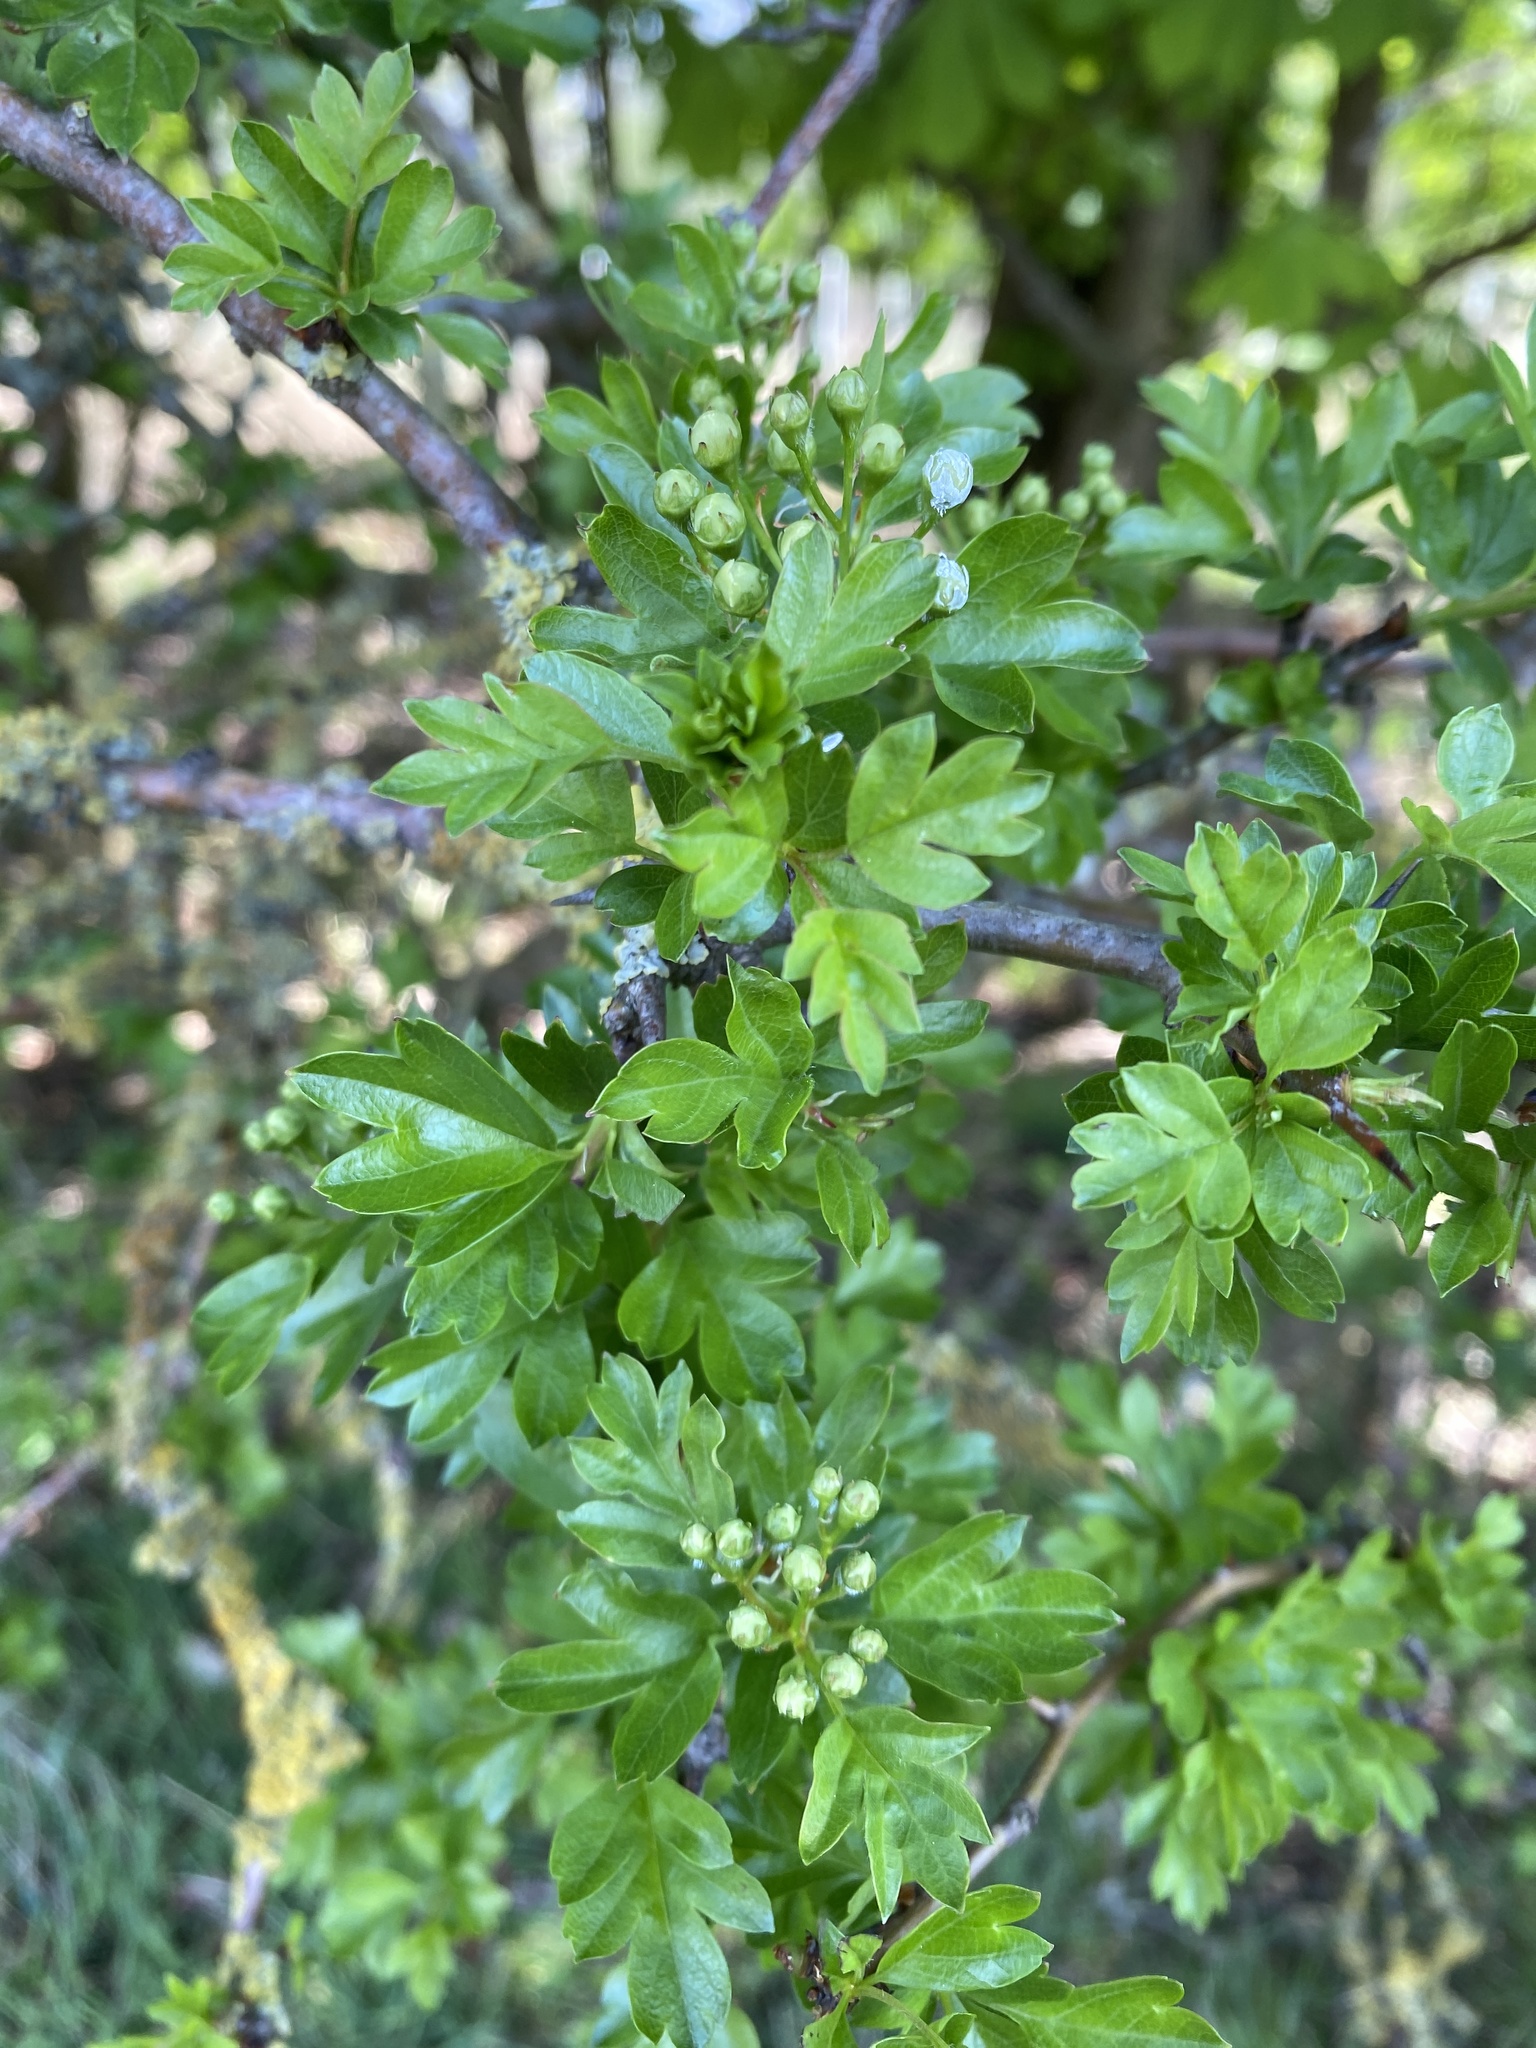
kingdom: Plantae
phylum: Tracheophyta
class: Magnoliopsida
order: Rosales
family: Rosaceae
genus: Crataegus
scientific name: Crataegus monogyna
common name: Hawthorn
